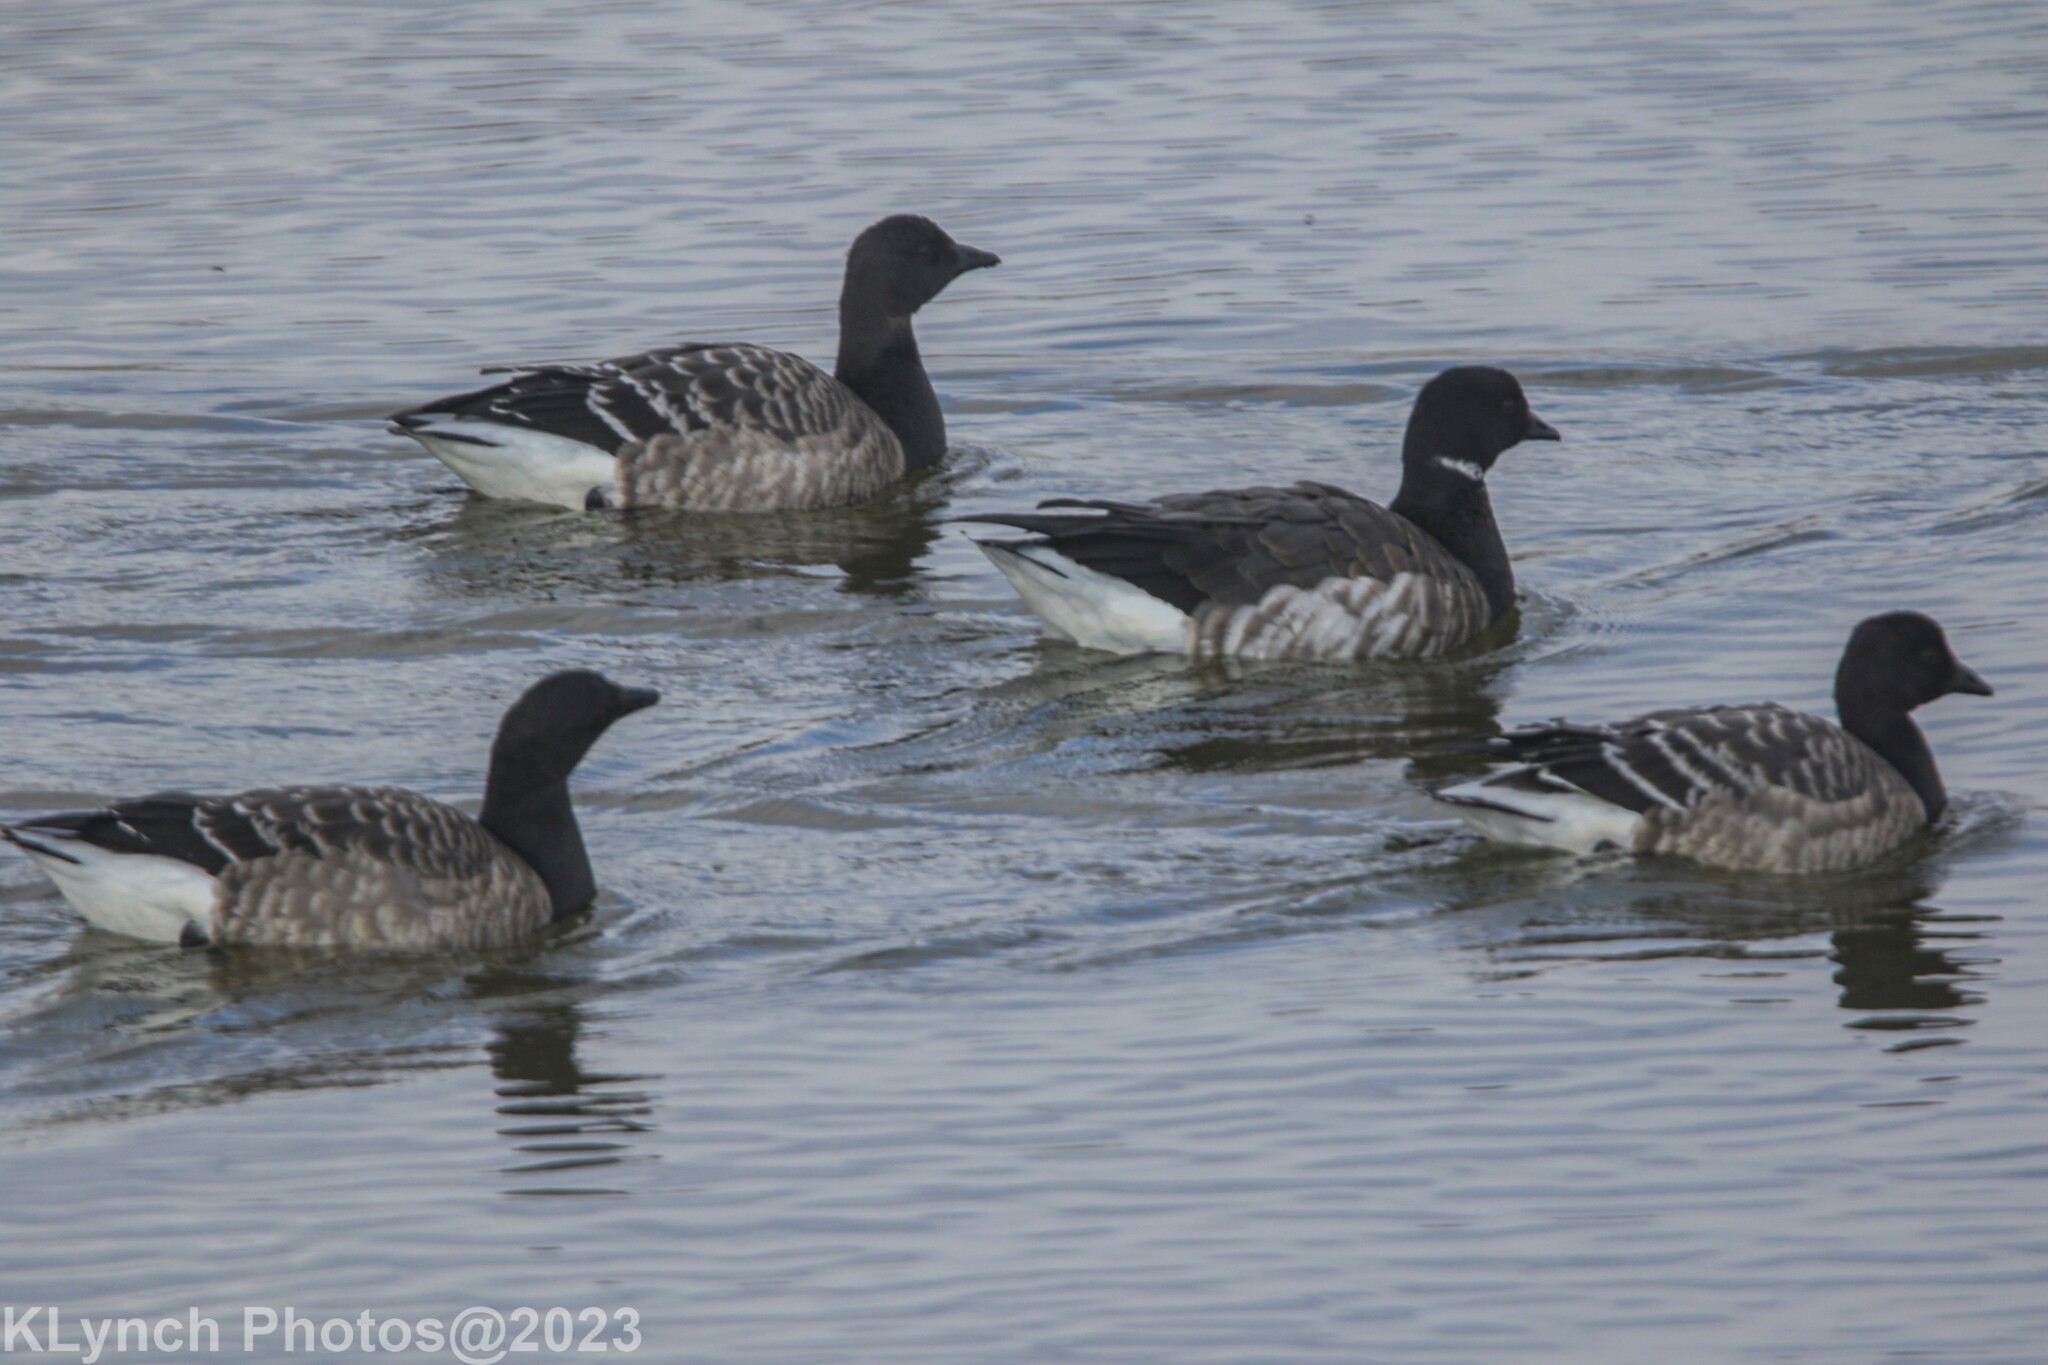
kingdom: Animalia
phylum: Chordata
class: Aves
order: Anseriformes
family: Anatidae
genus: Branta
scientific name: Branta bernicla
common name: Brant goose
